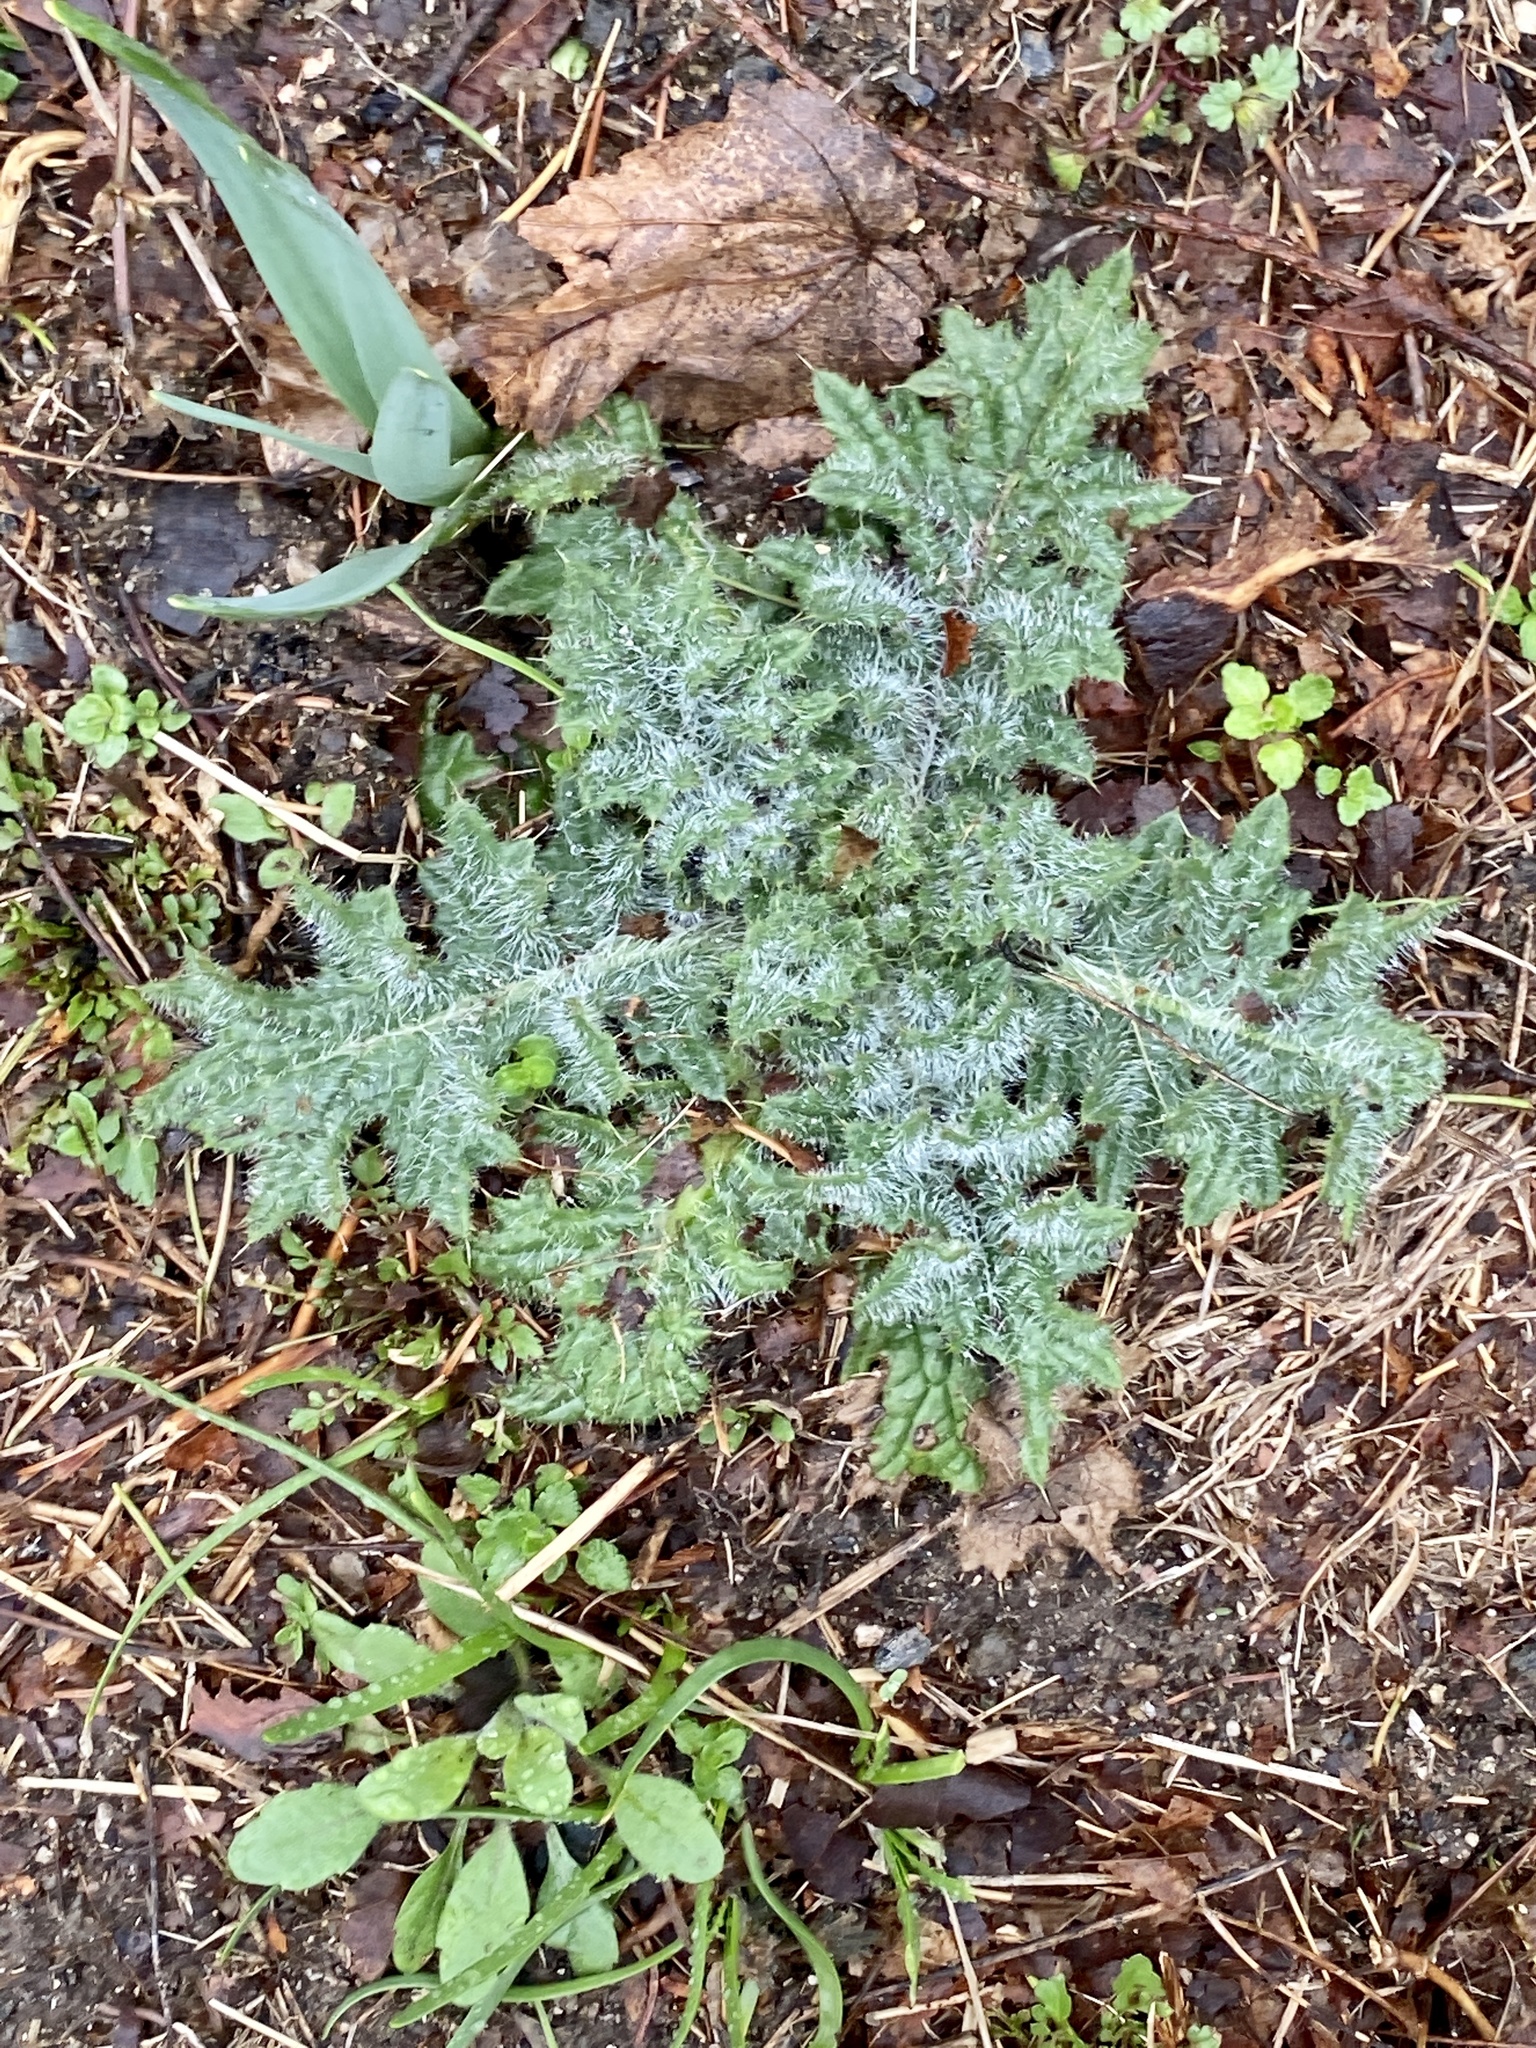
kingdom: Plantae
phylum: Tracheophyta
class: Magnoliopsida
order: Asterales
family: Asteraceae
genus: Cirsium
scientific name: Cirsium vulgare
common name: Bull thistle
